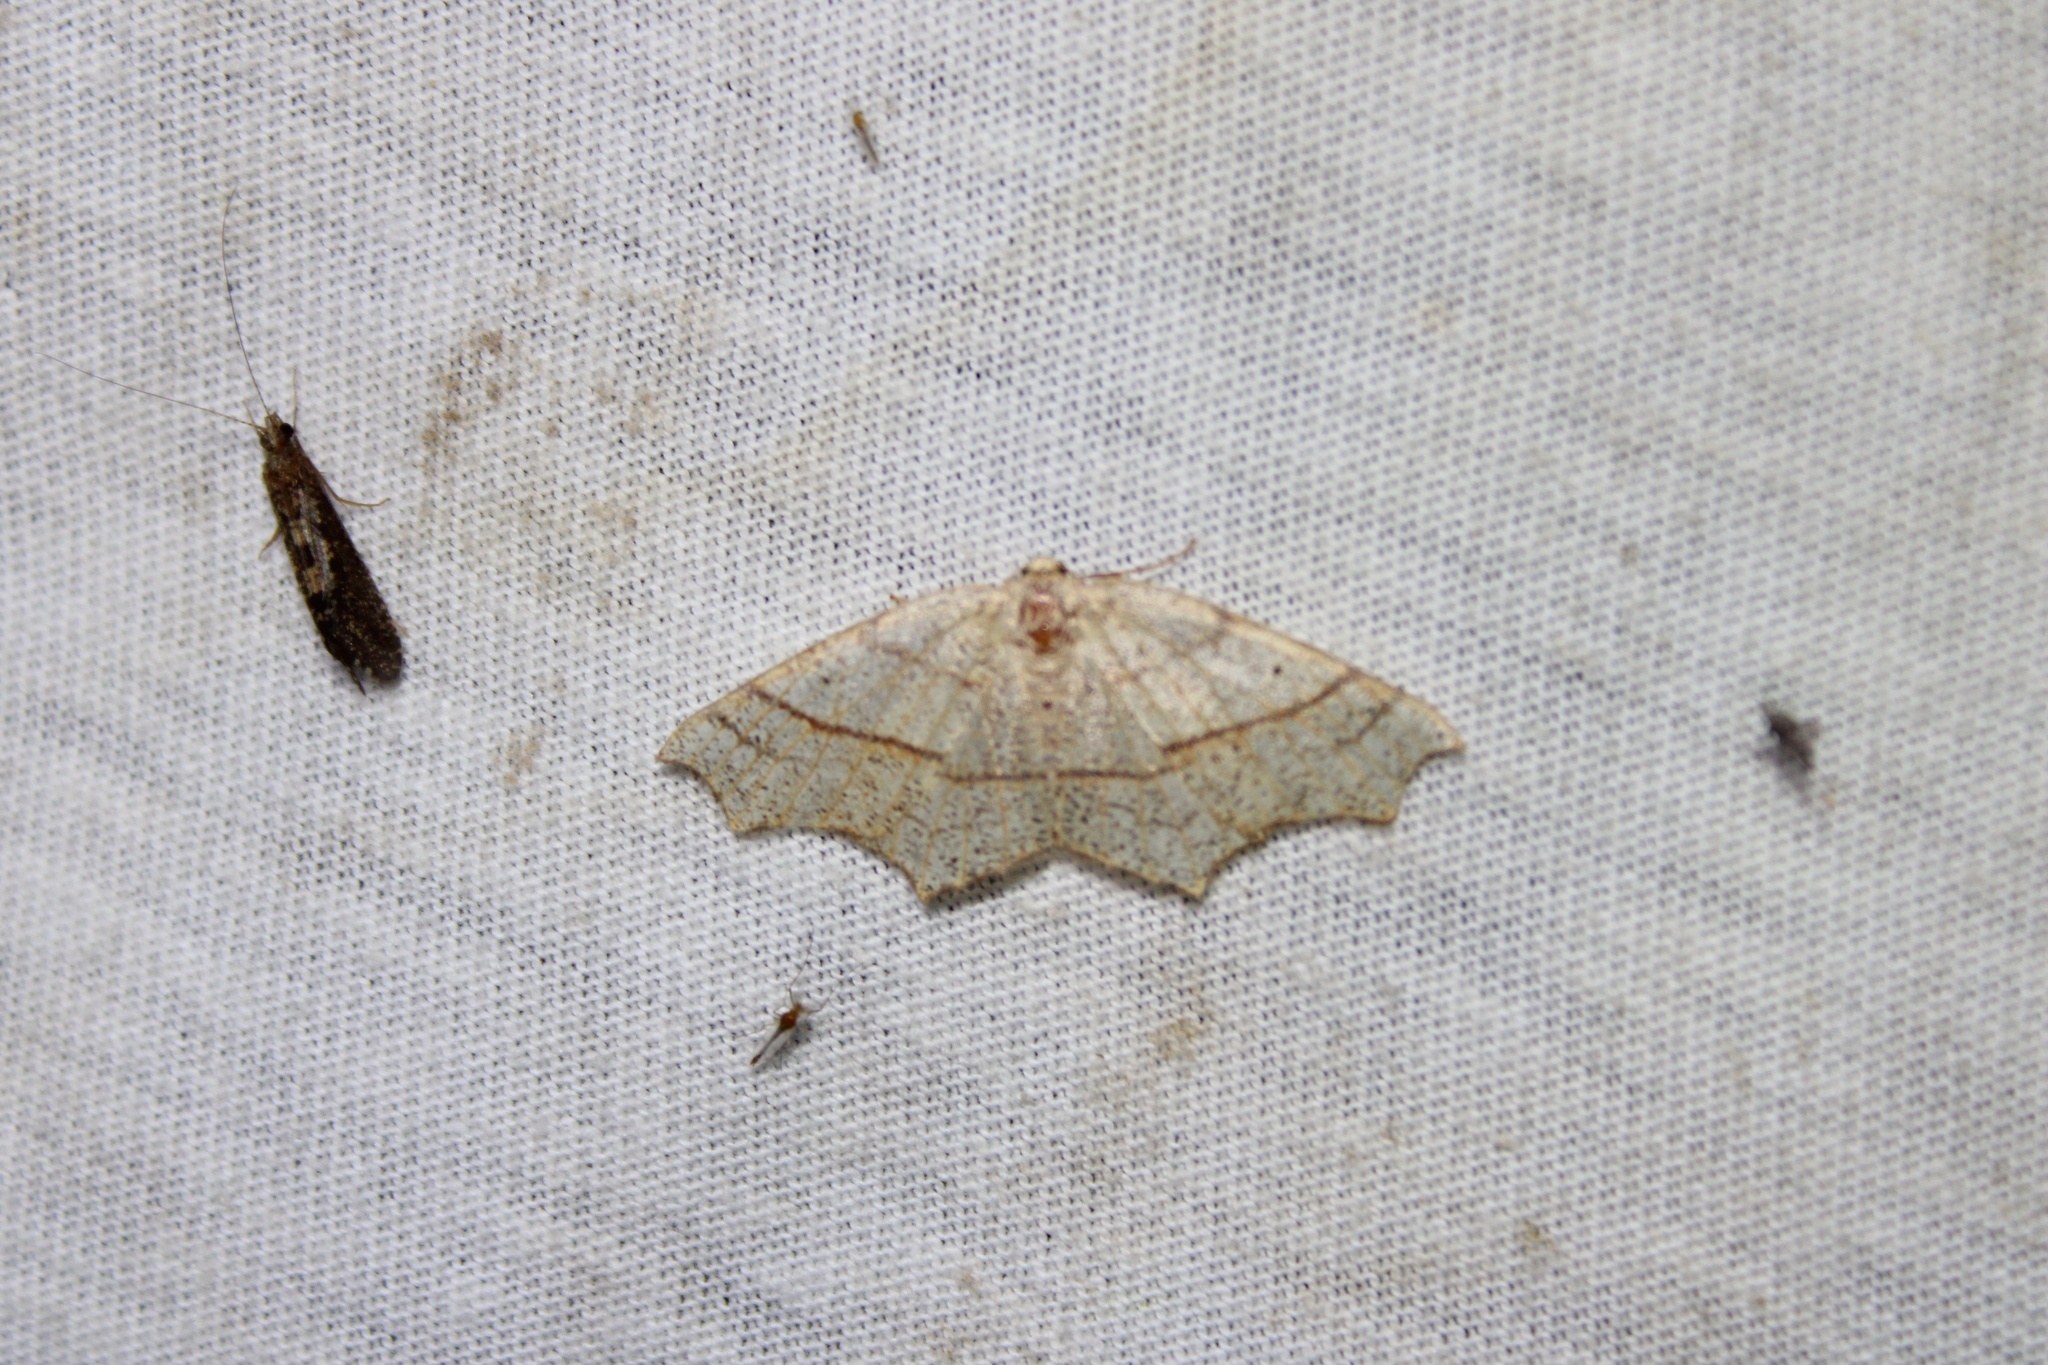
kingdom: Animalia
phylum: Arthropoda
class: Insecta
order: Lepidoptera
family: Geometridae
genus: Besma
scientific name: Besma quercivoraria
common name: Oak besma
